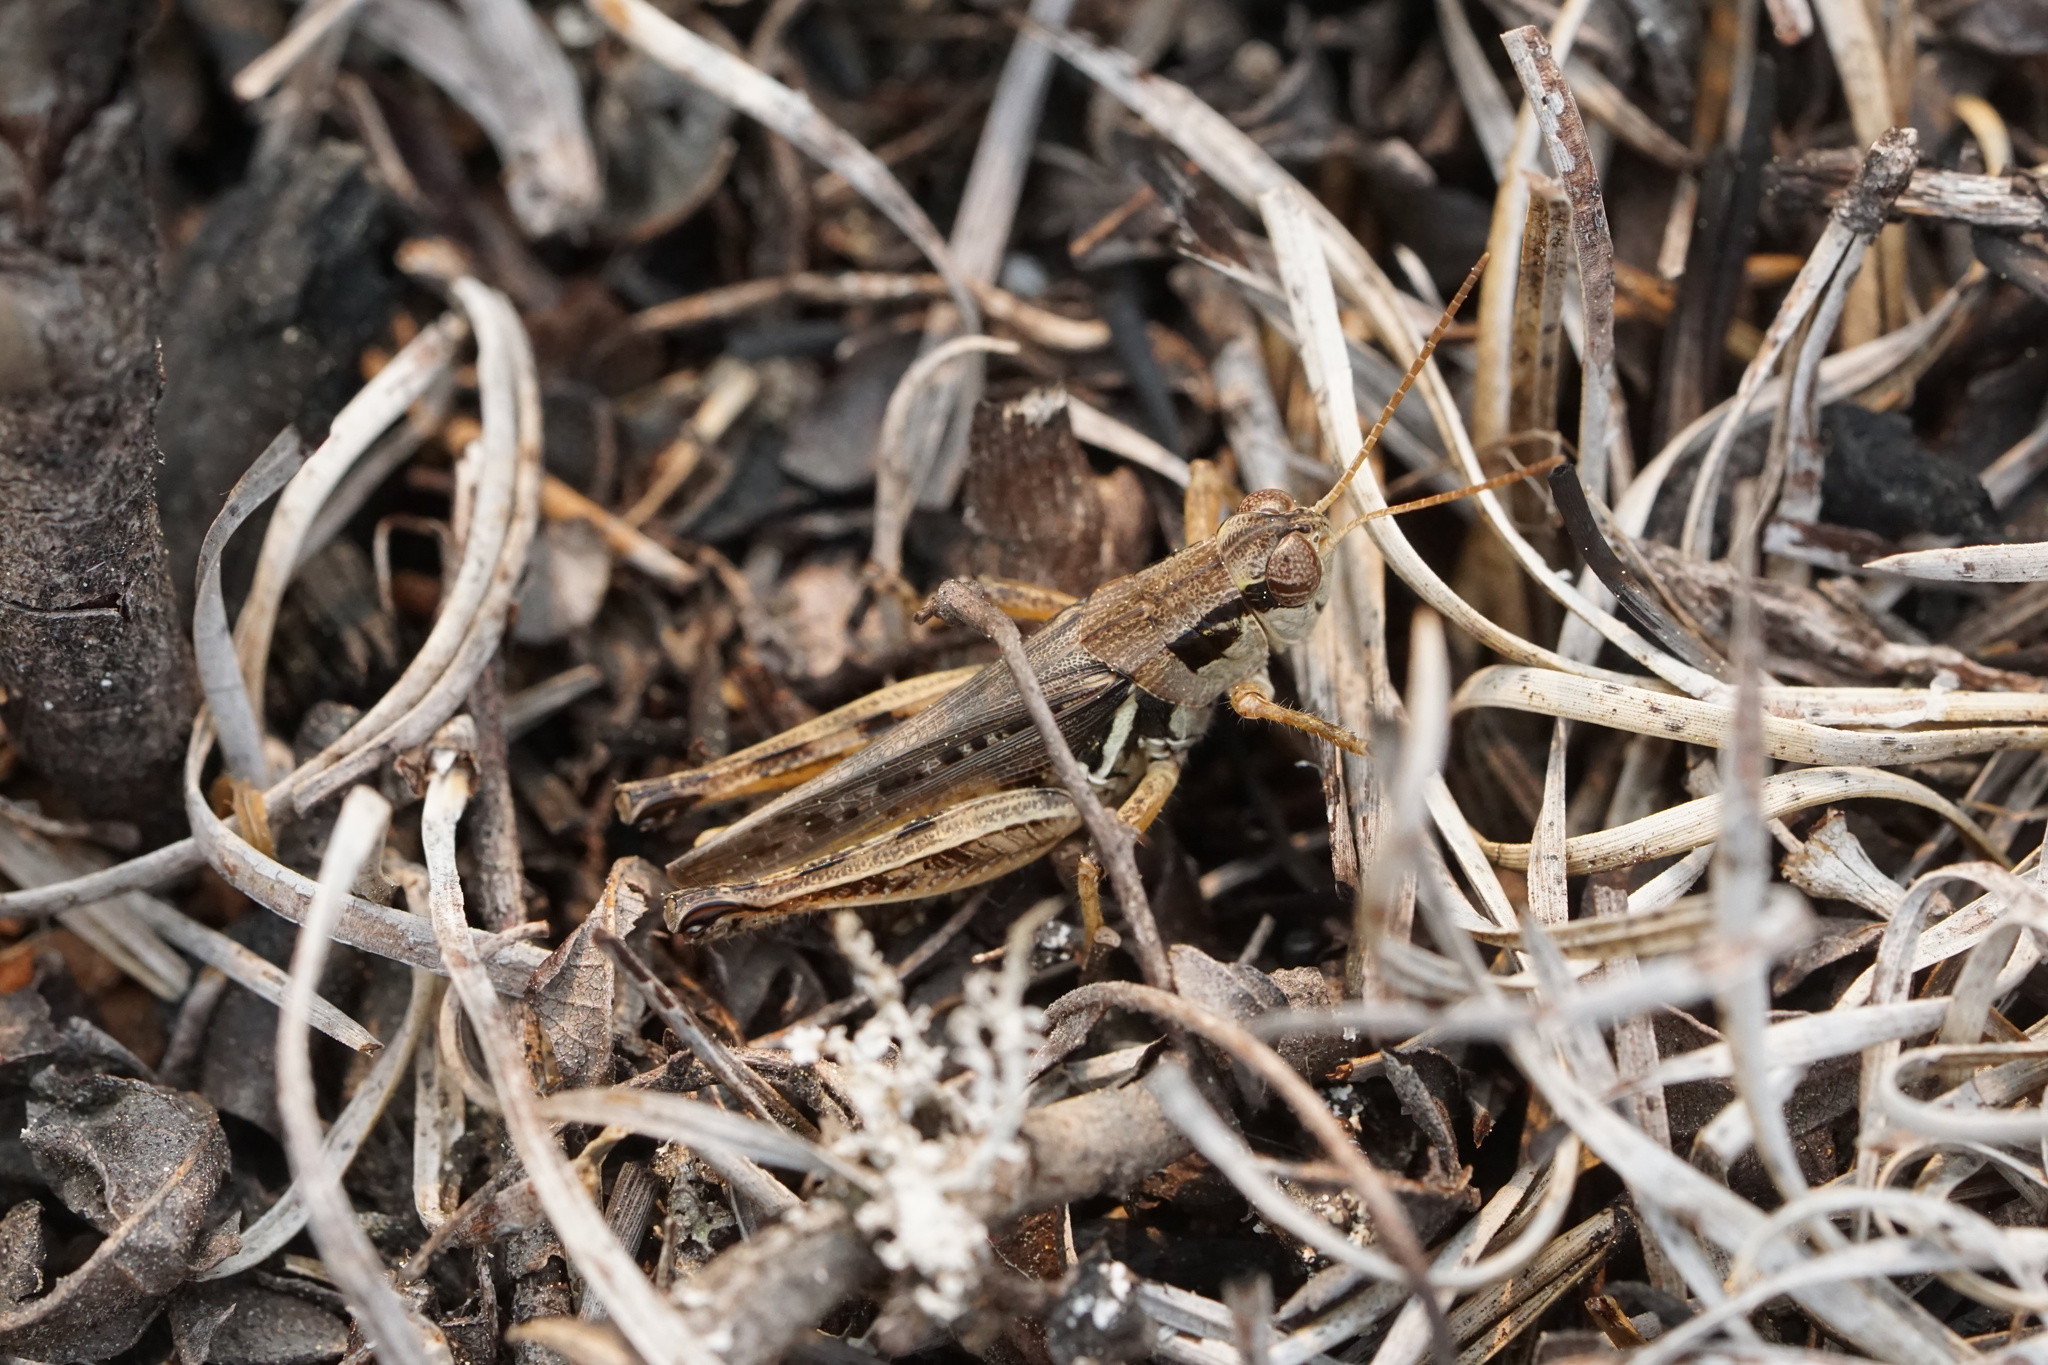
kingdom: Animalia
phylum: Arthropoda
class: Insecta
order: Orthoptera
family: Acrididae
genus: Melanoplus
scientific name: Melanoplus confusus
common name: Little pasture locust
